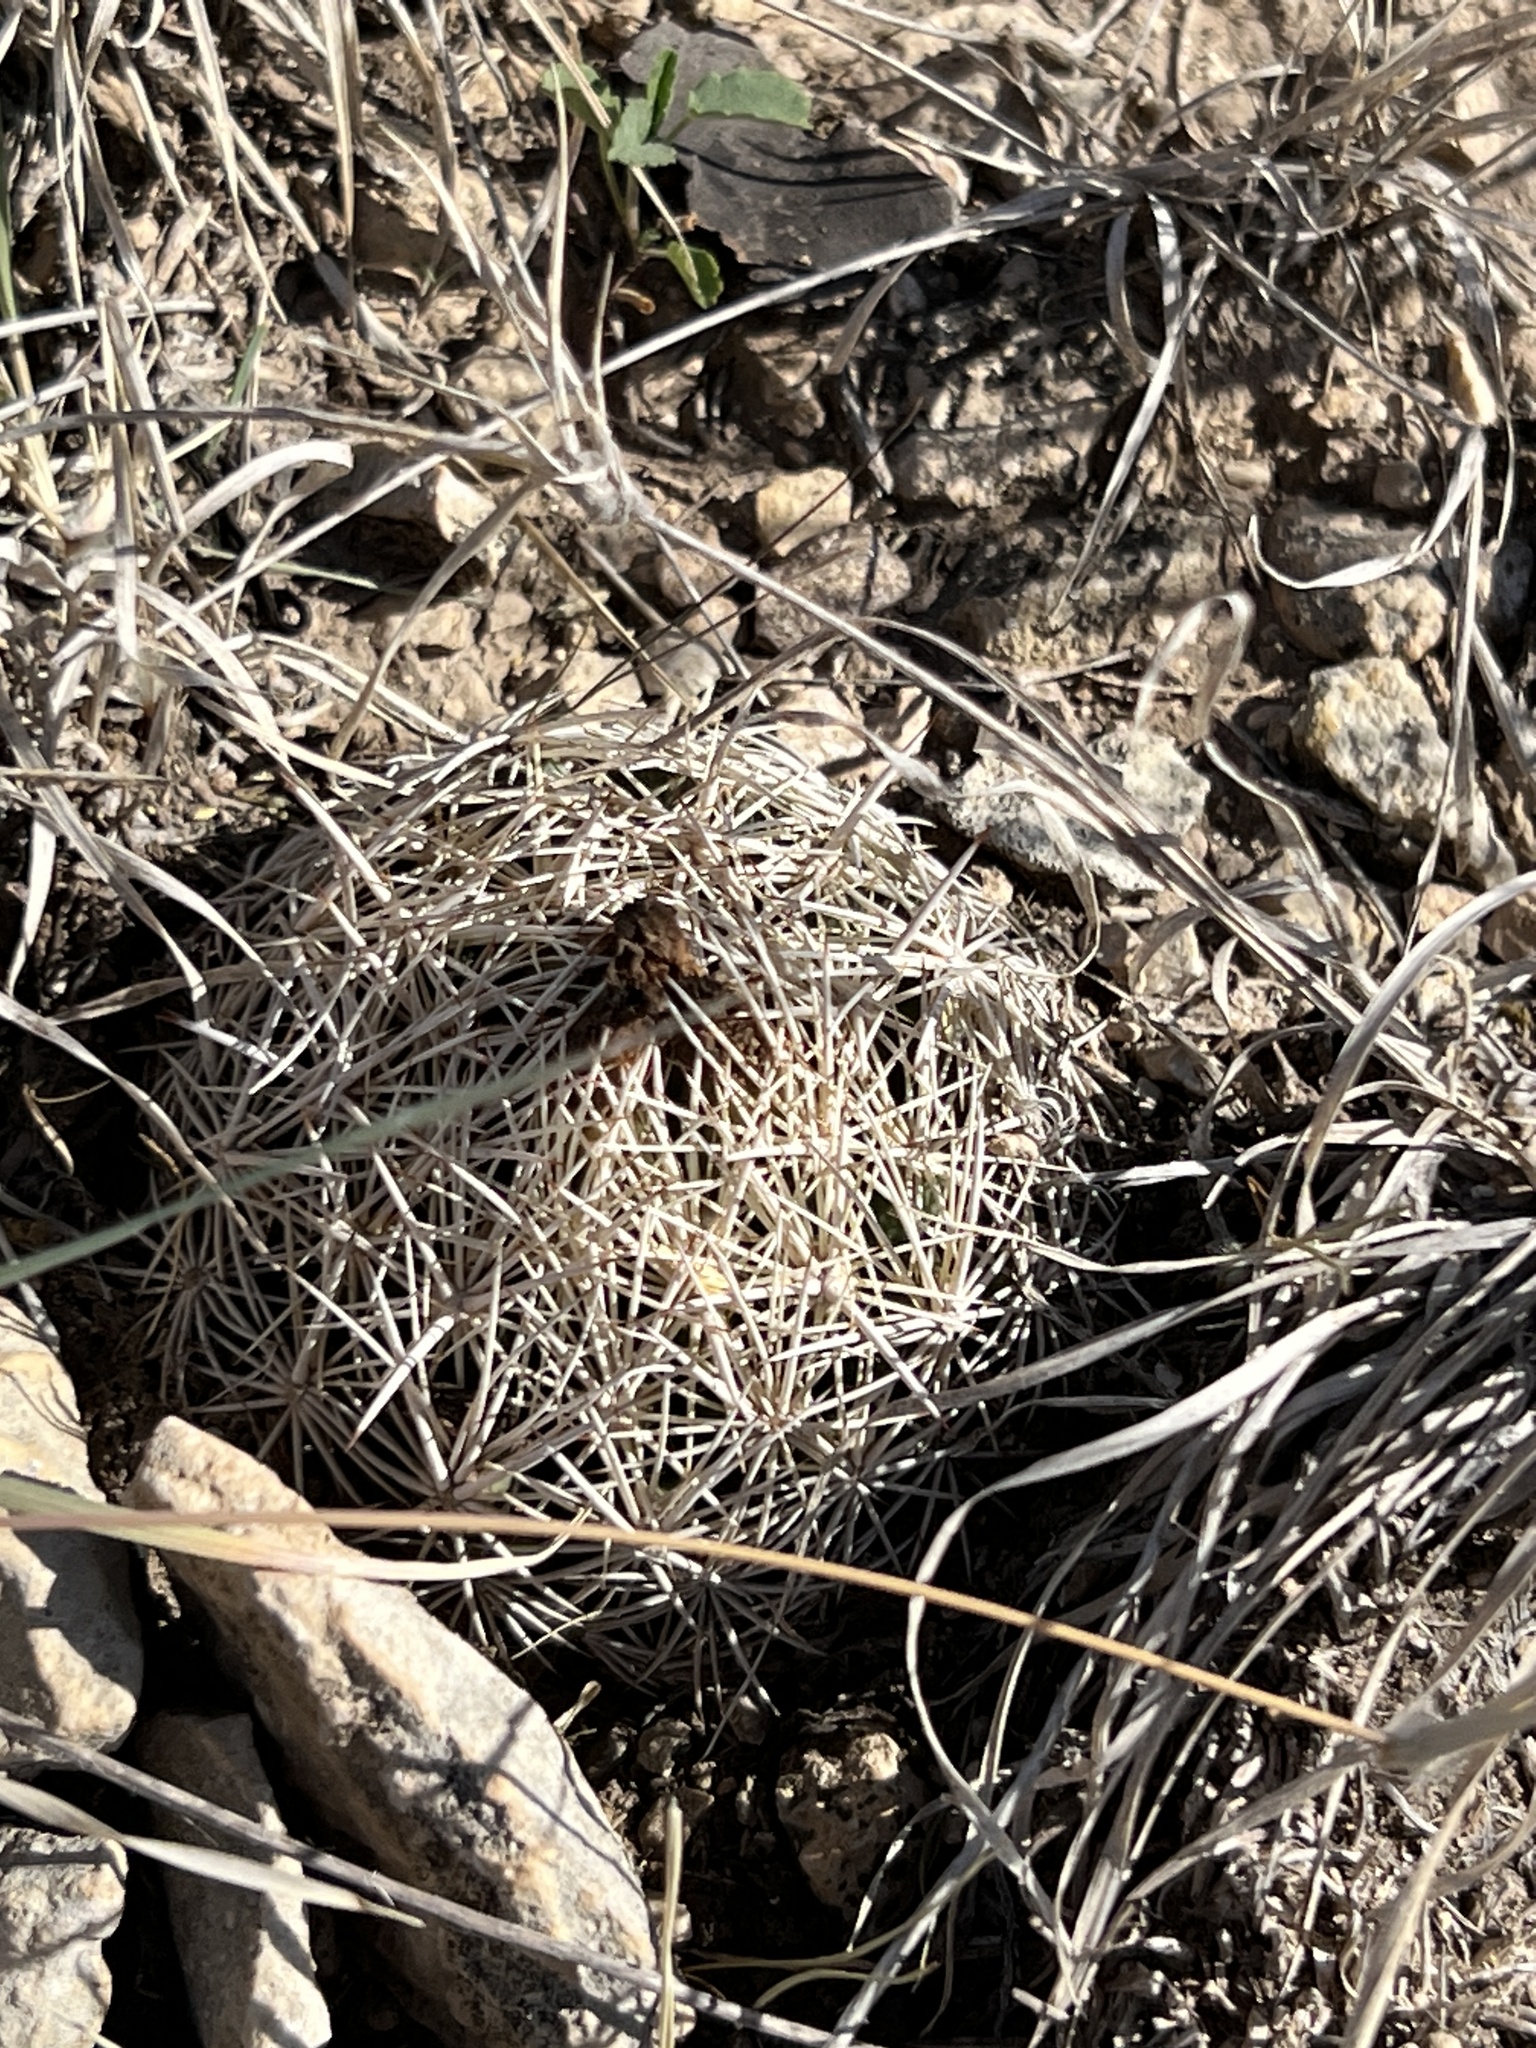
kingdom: Plantae
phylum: Tracheophyta
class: Magnoliopsida
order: Caryophyllales
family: Cactaceae
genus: Coryphantha
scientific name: Coryphantha echinus
